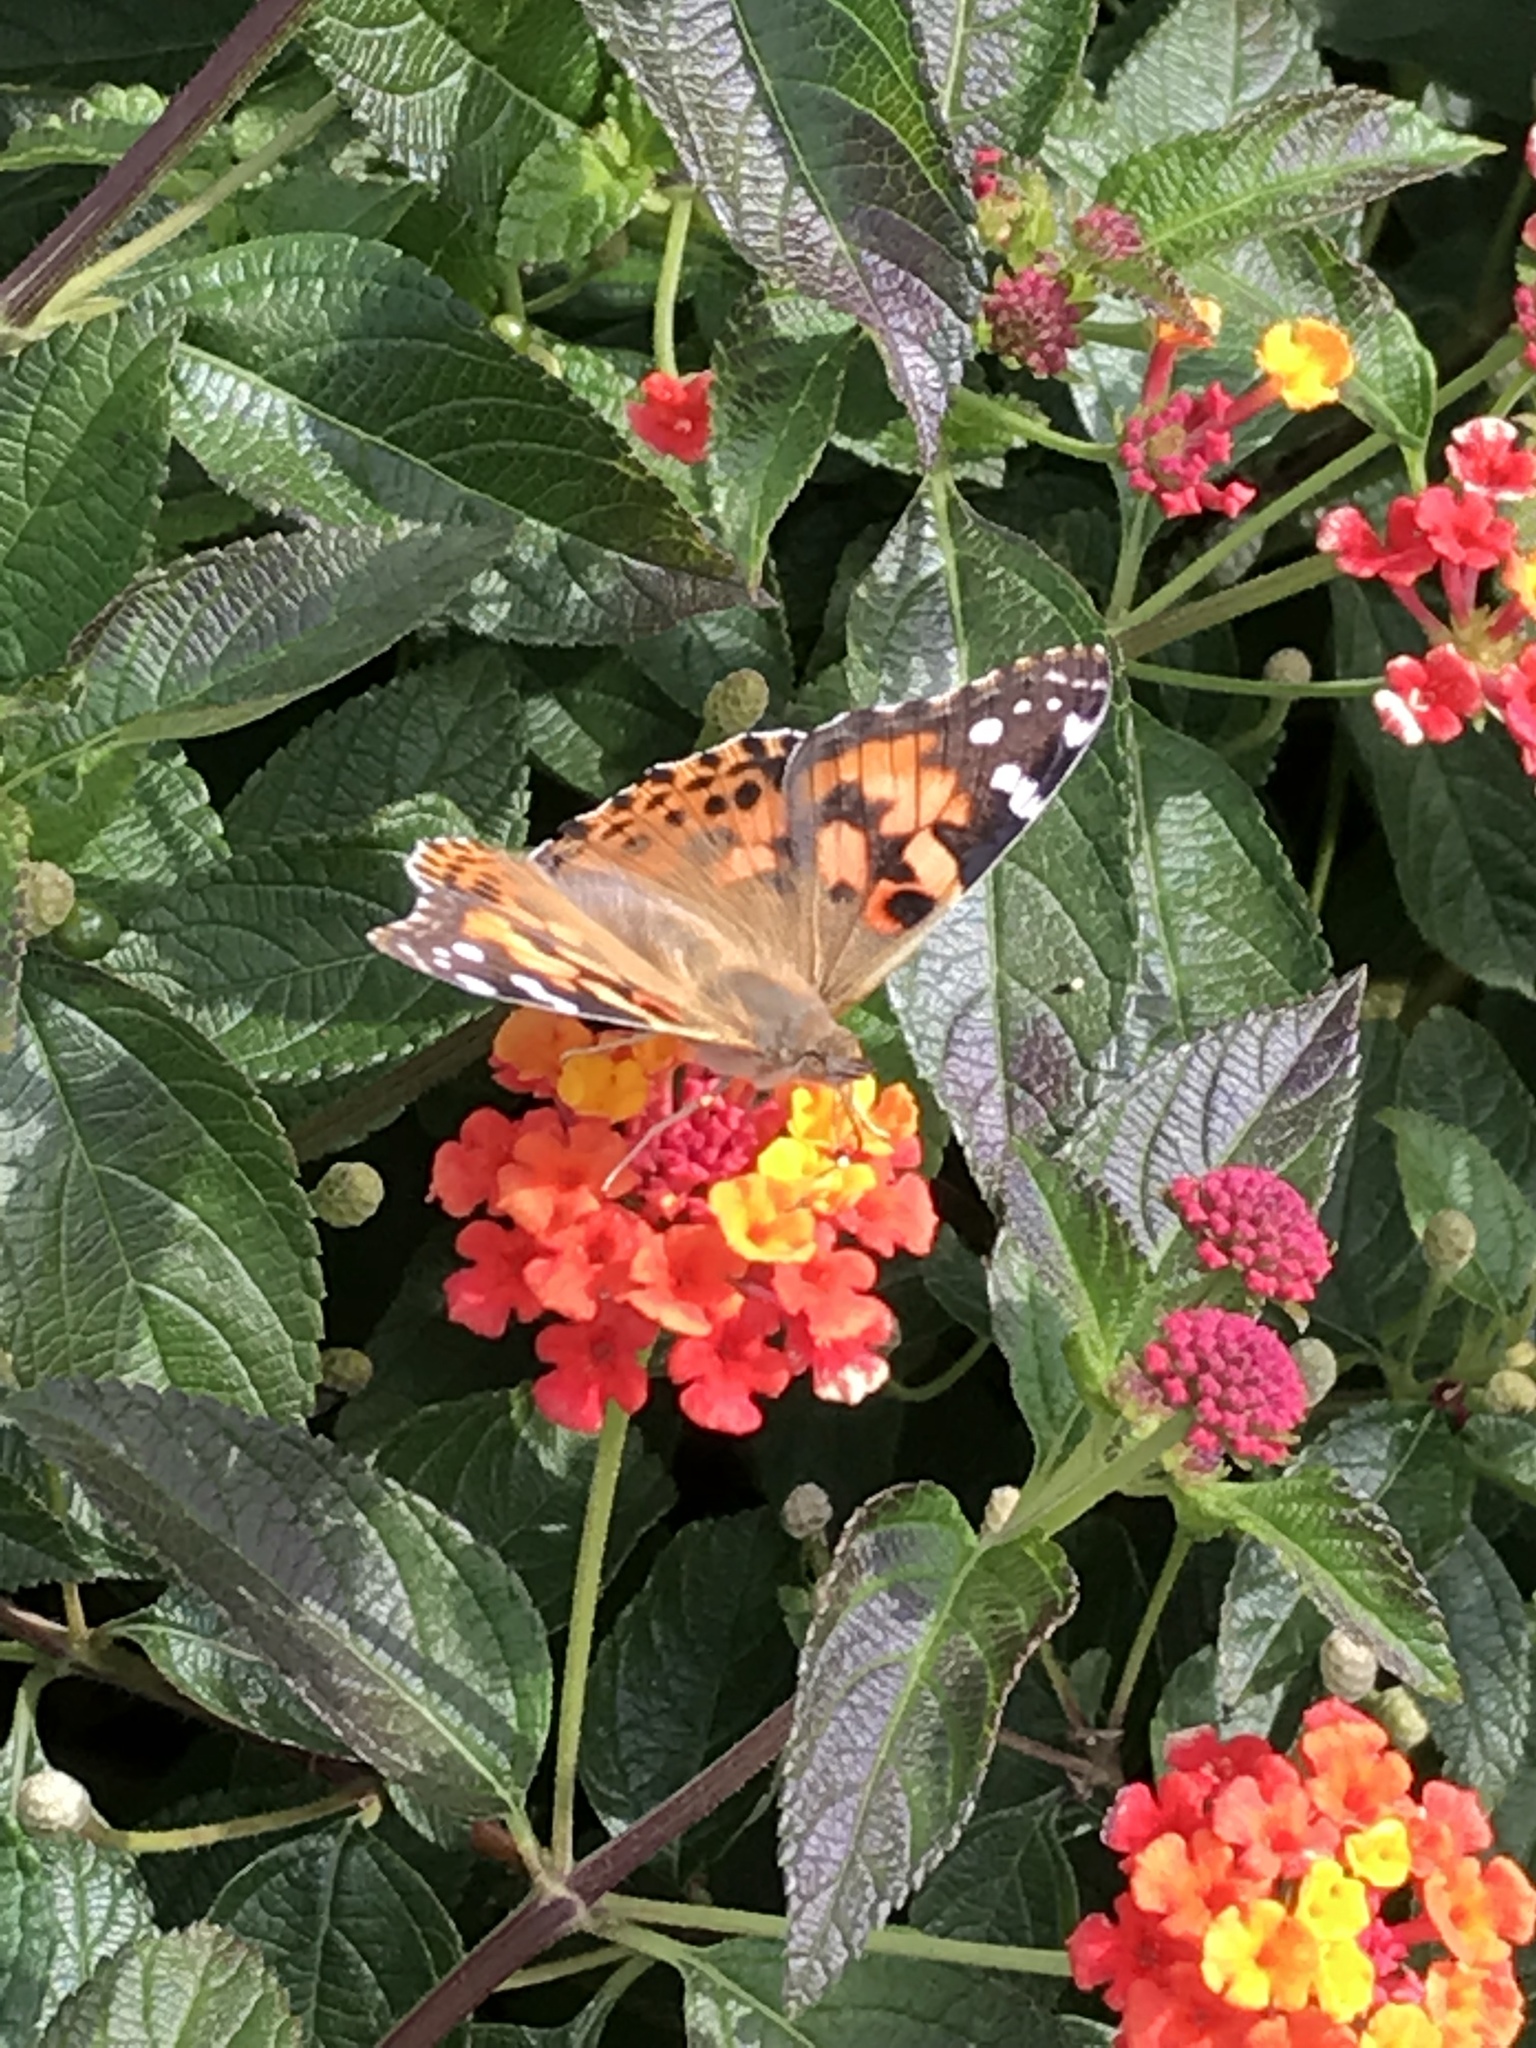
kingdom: Animalia
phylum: Arthropoda
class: Insecta
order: Lepidoptera
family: Nymphalidae
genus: Vanessa
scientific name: Vanessa cardui
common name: Painted lady
